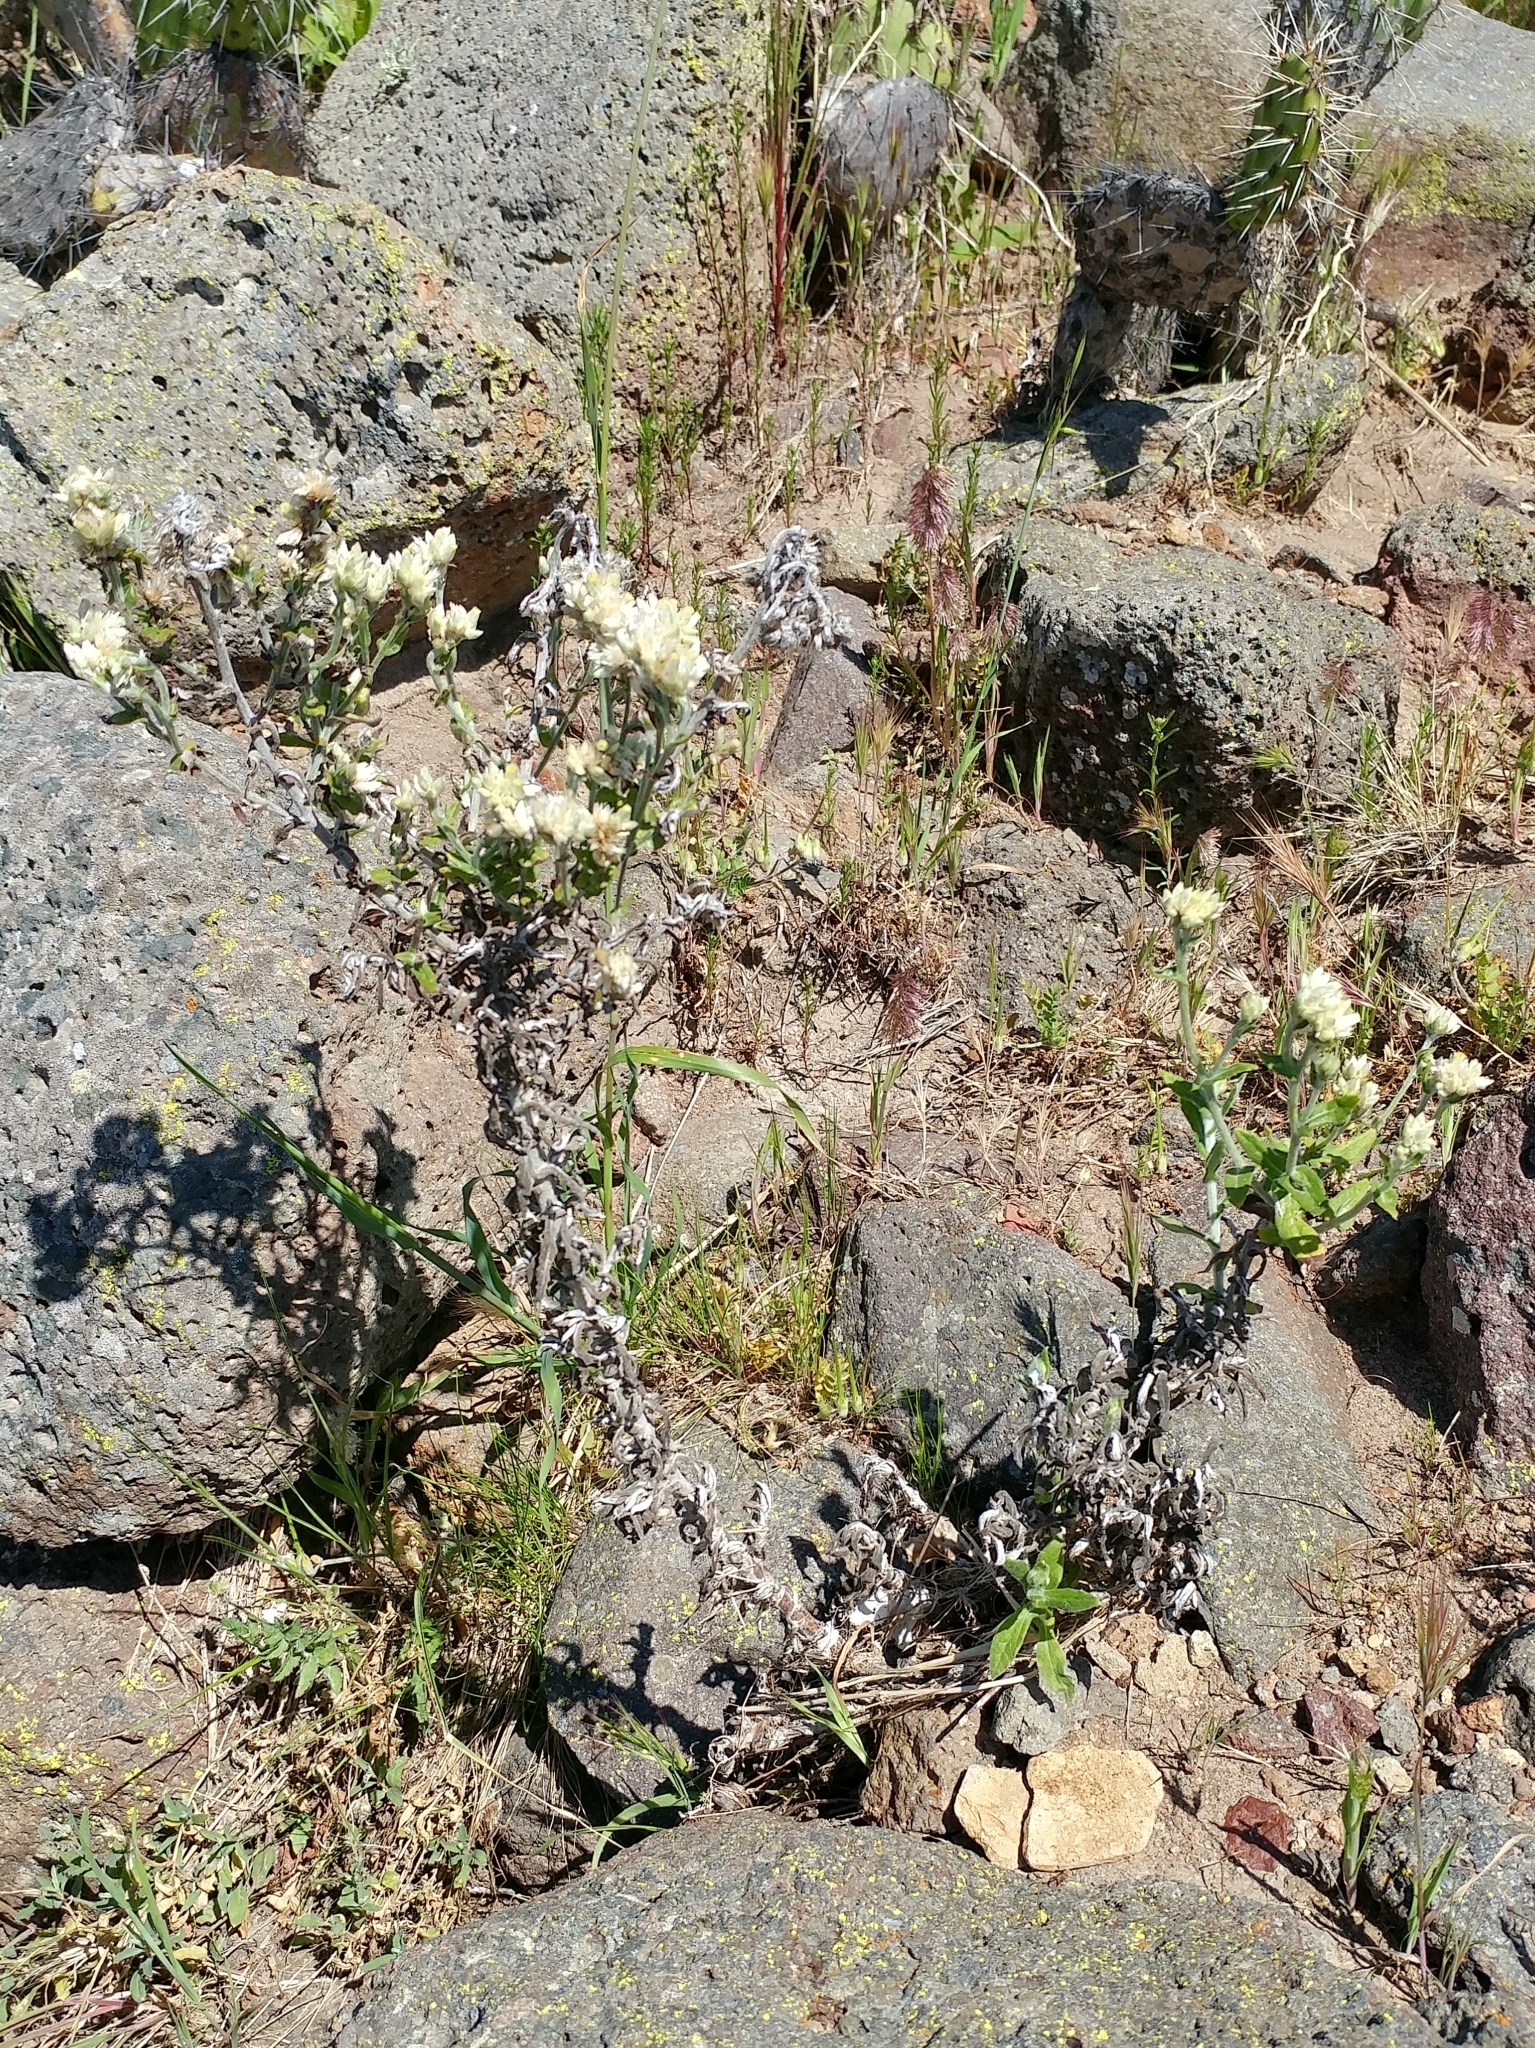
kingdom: Plantae
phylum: Tracheophyta
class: Magnoliopsida
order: Asterales
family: Asteraceae
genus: Pseudognaphalium
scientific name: Pseudognaphalium biolettii
